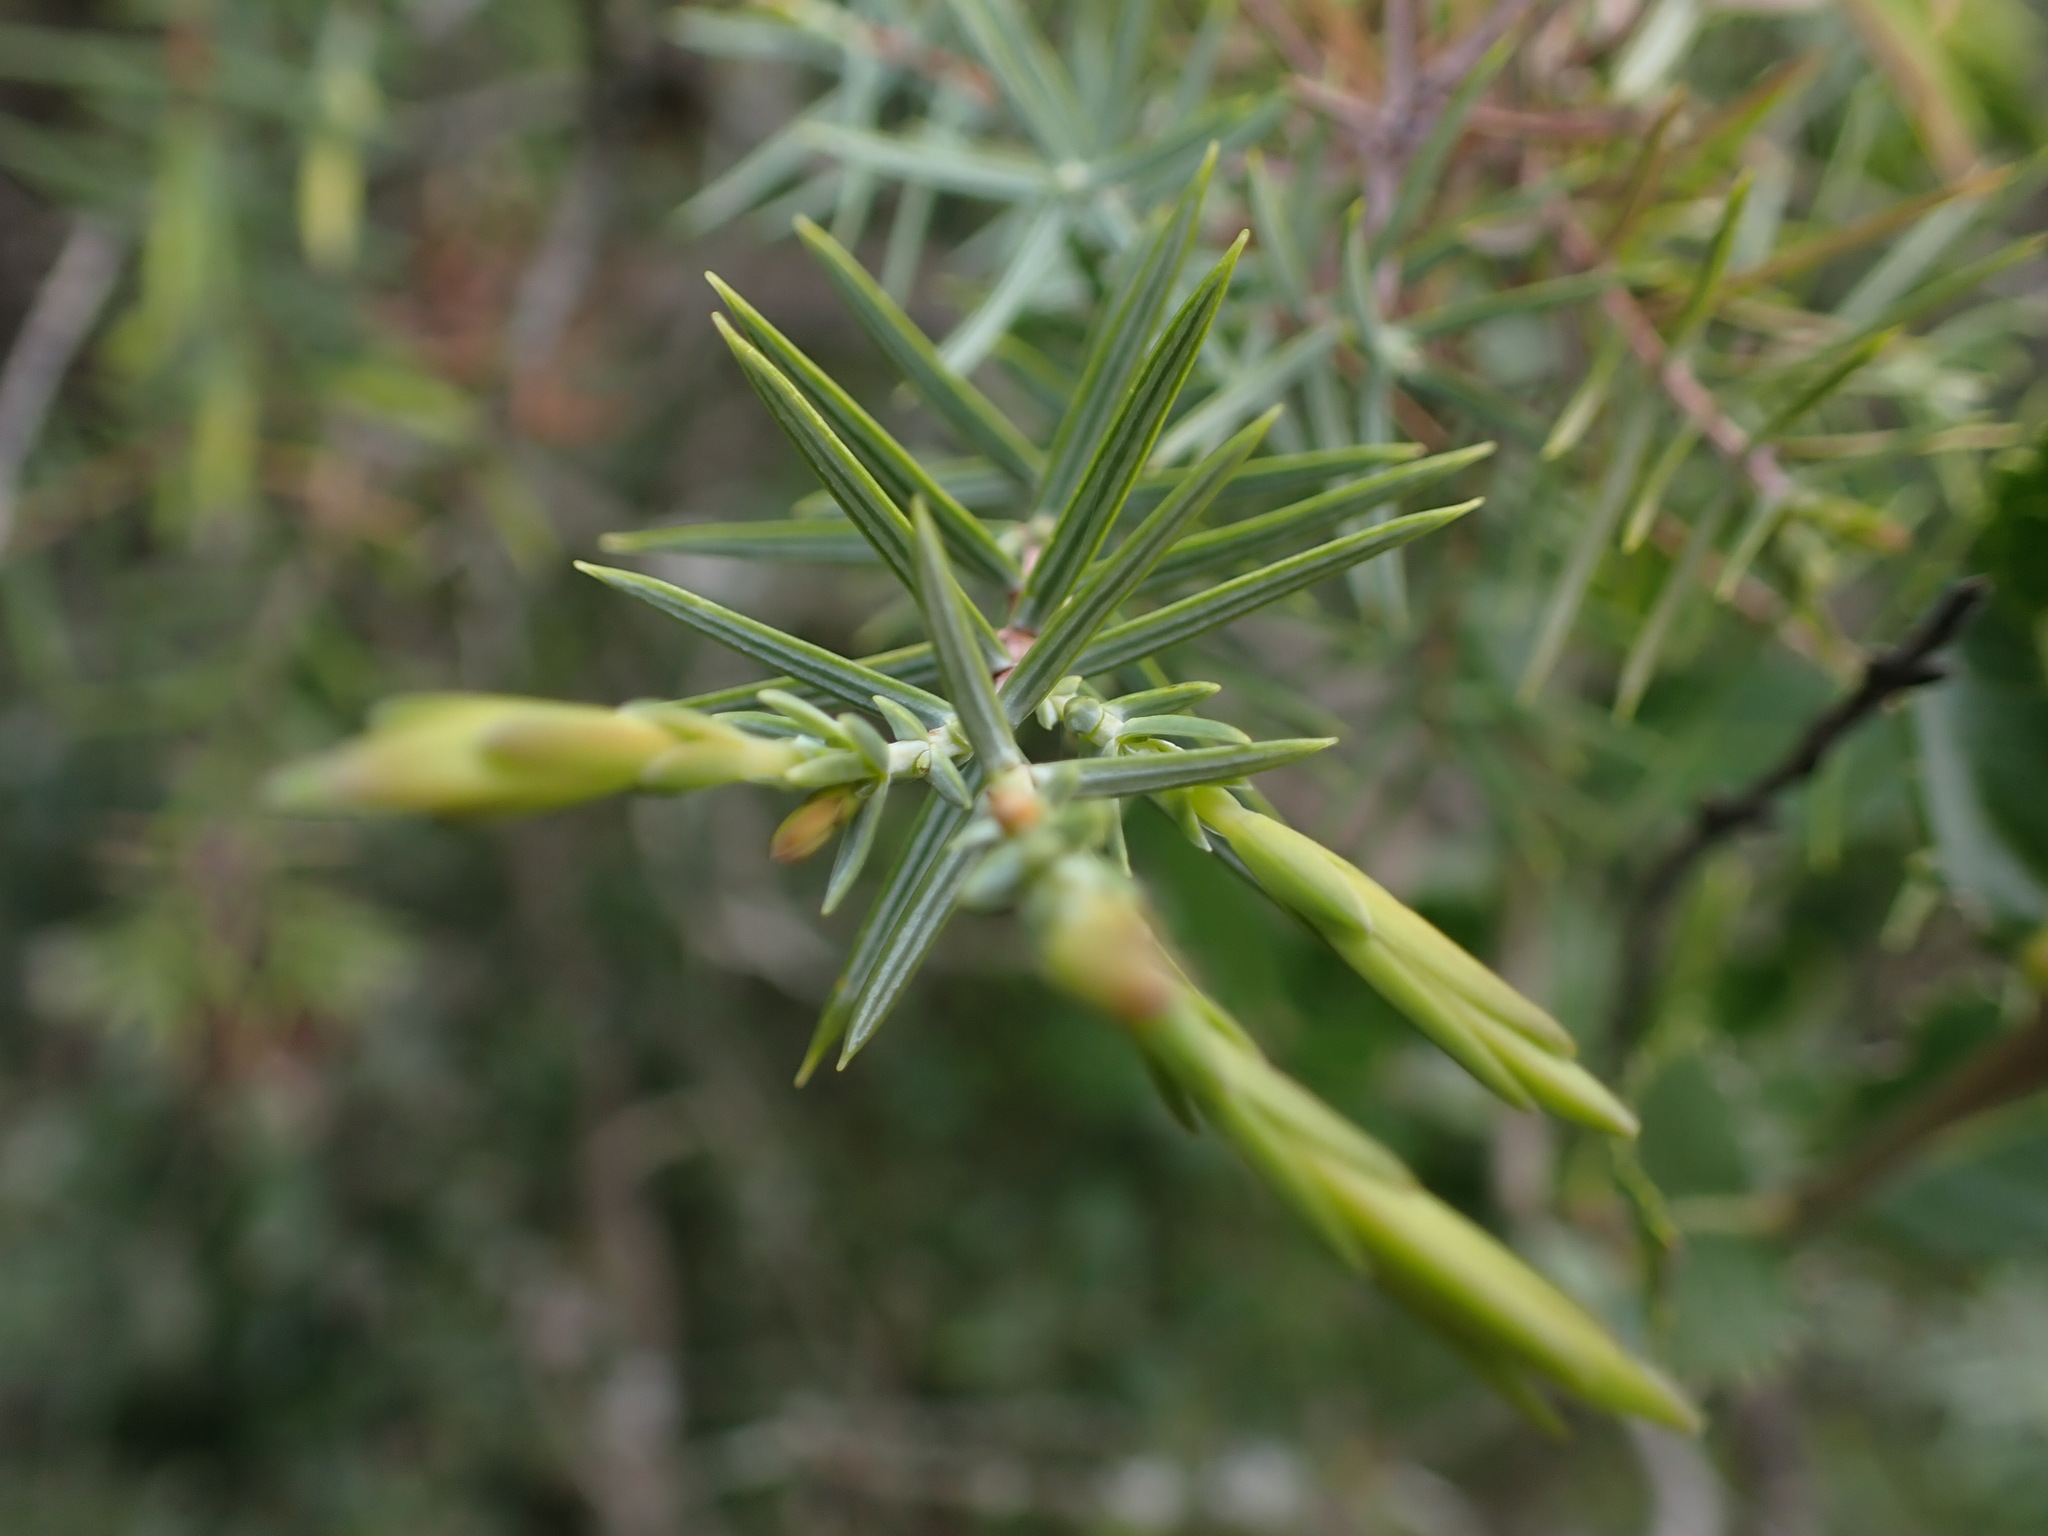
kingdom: Plantae
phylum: Tracheophyta
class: Pinopsida
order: Pinales
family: Cupressaceae
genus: Juniperus
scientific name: Juniperus oxycedrus
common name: Prickly juniper
